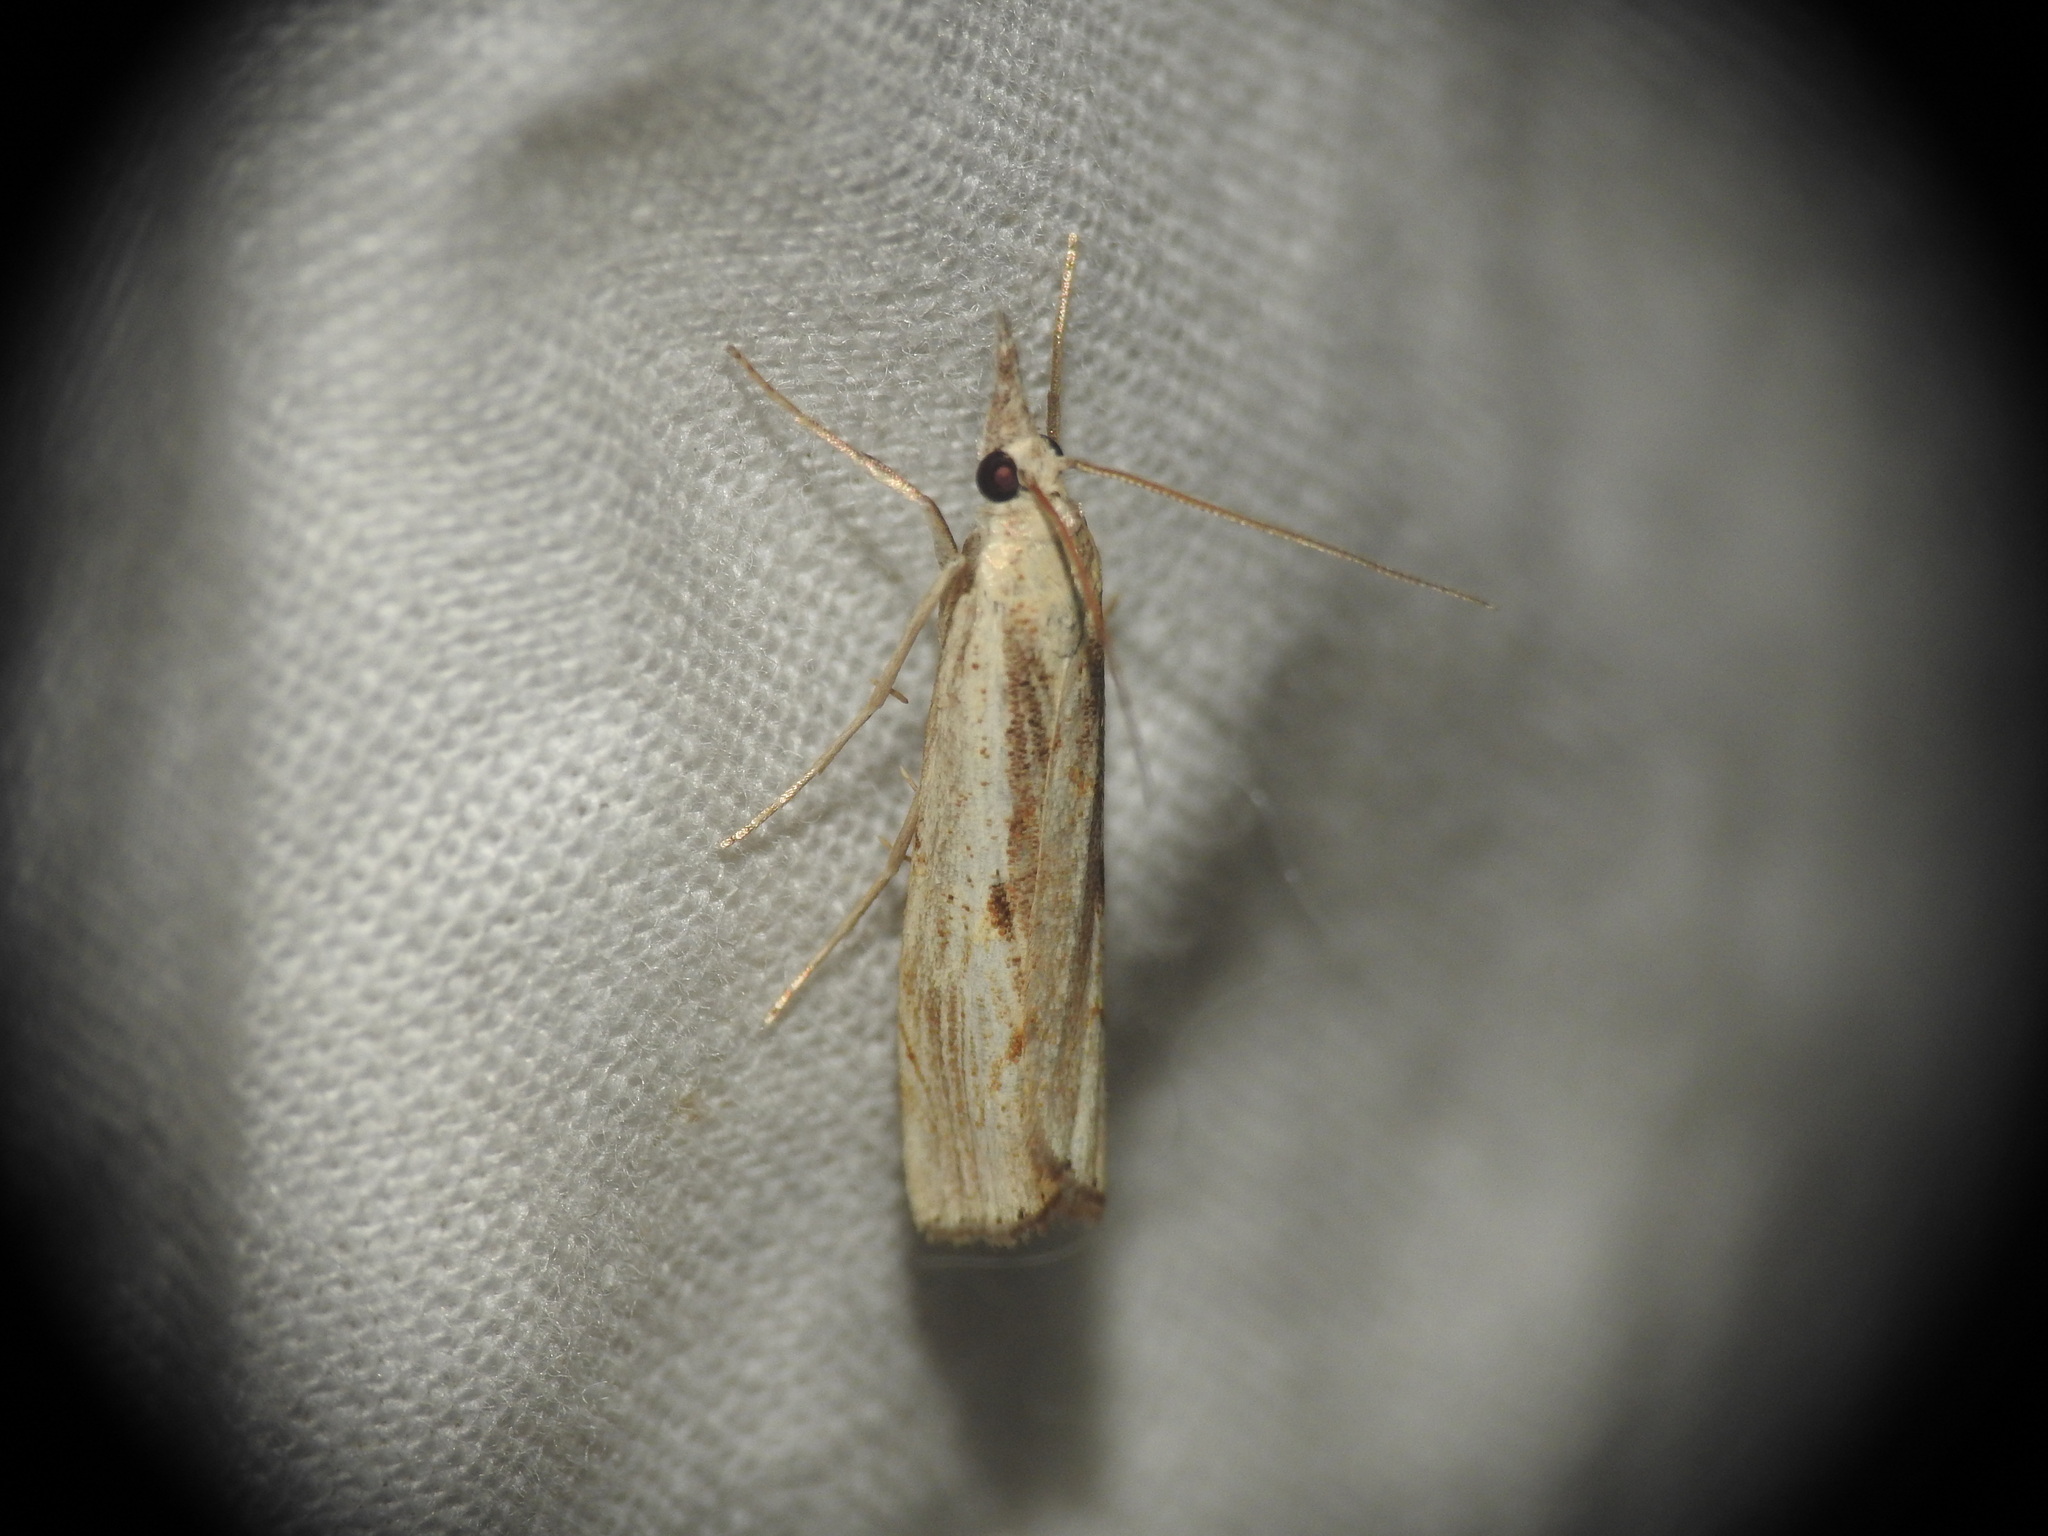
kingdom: Animalia
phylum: Arthropoda
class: Insecta
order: Lepidoptera
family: Crambidae
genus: Agriphila
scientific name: Agriphila inquinatella
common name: Barred grass-veneer
